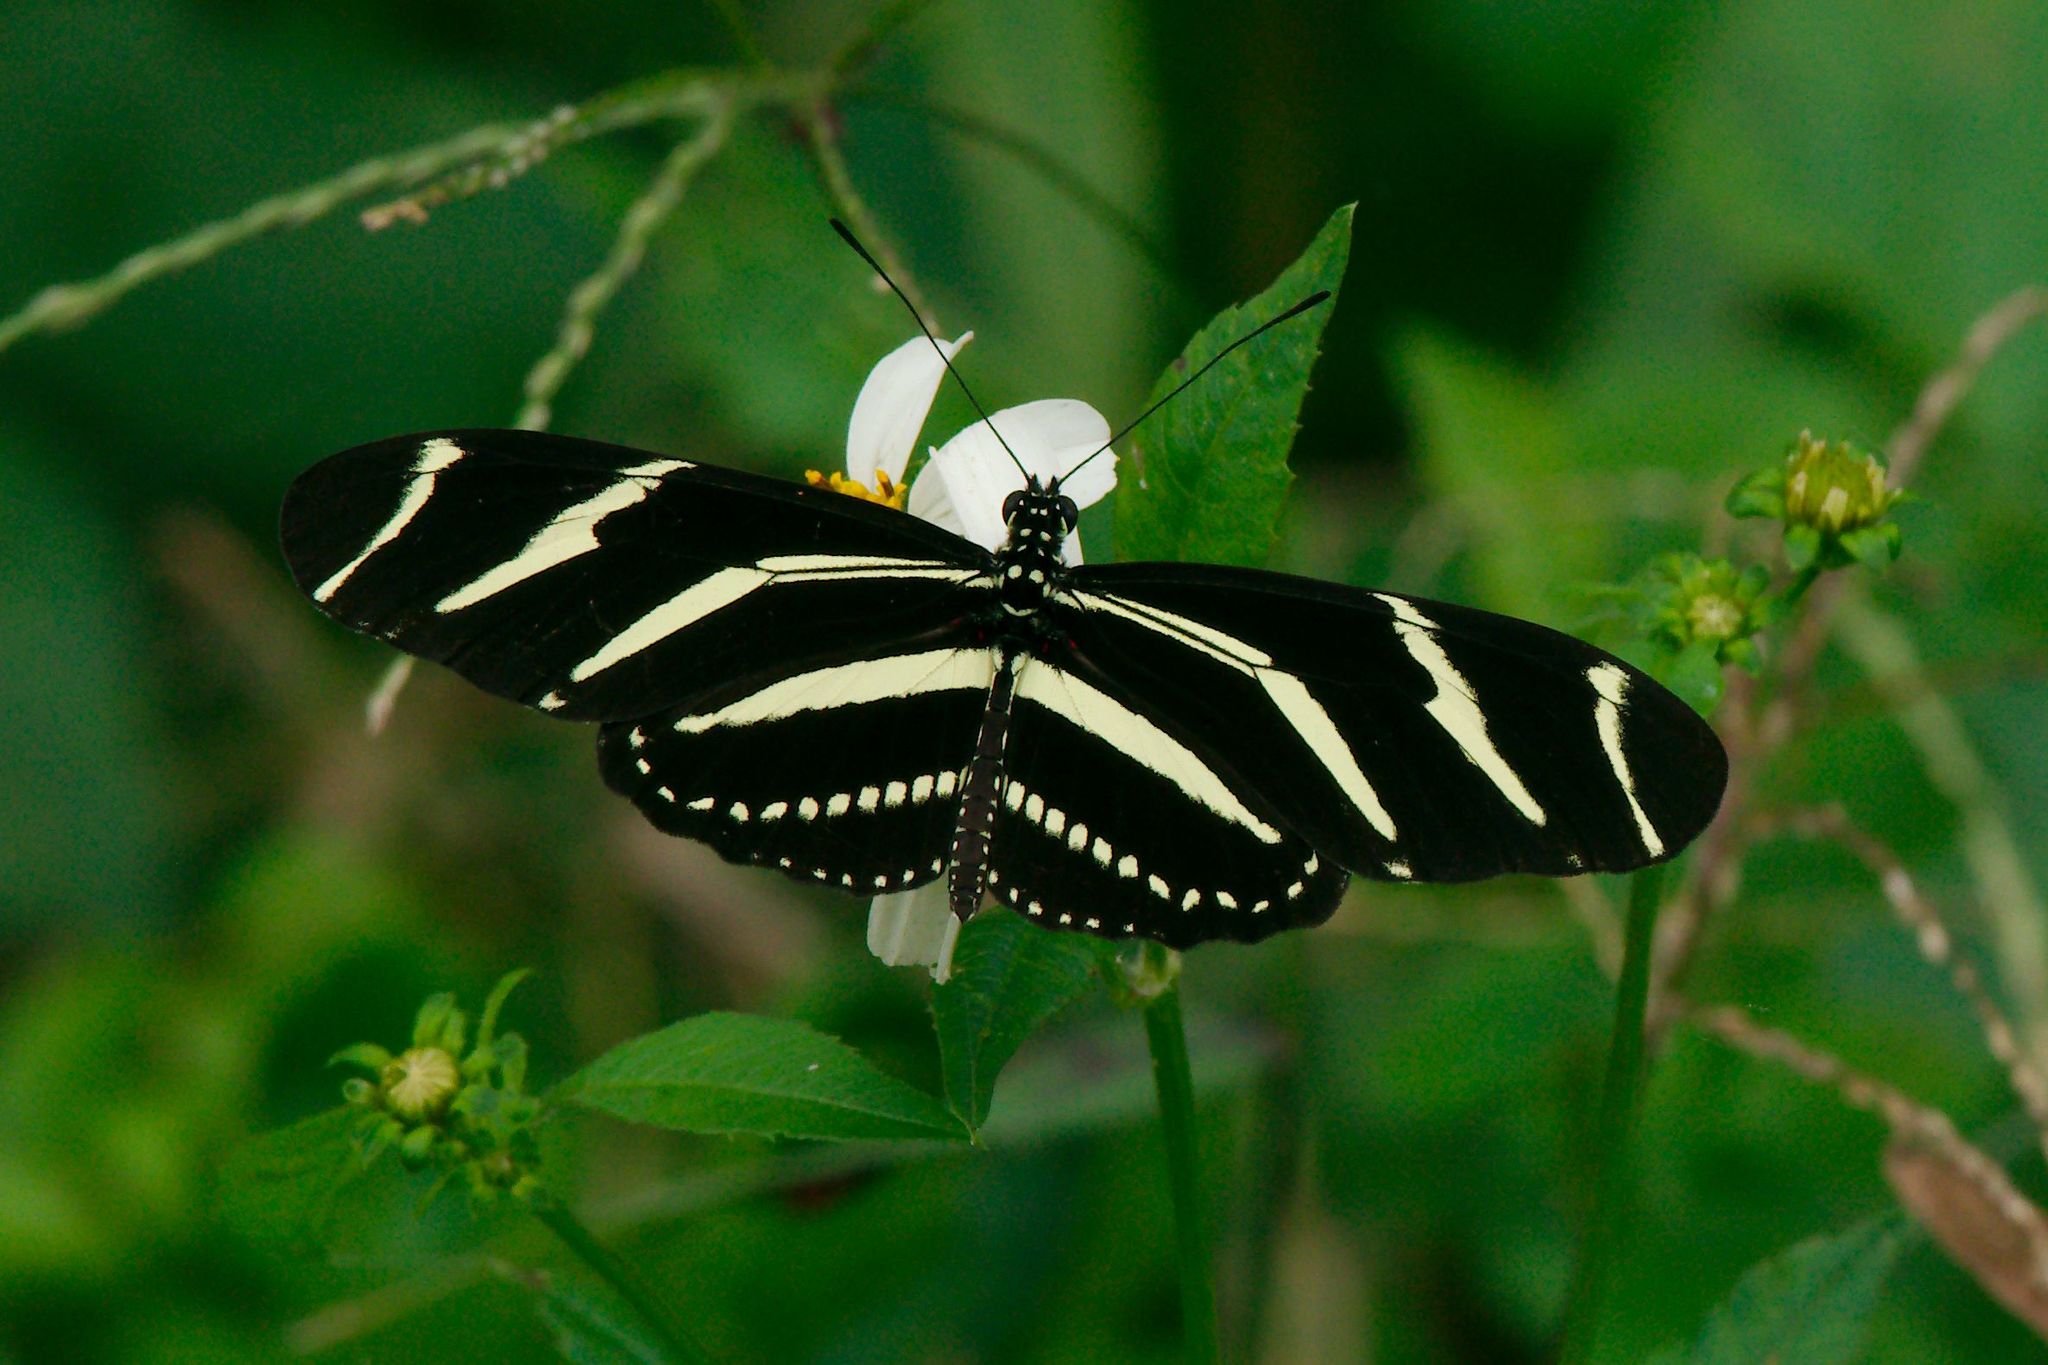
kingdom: Animalia
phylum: Arthropoda
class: Insecta
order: Lepidoptera
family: Nymphalidae
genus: Heliconius
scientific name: Heliconius charithonia
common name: Zebra long wing
